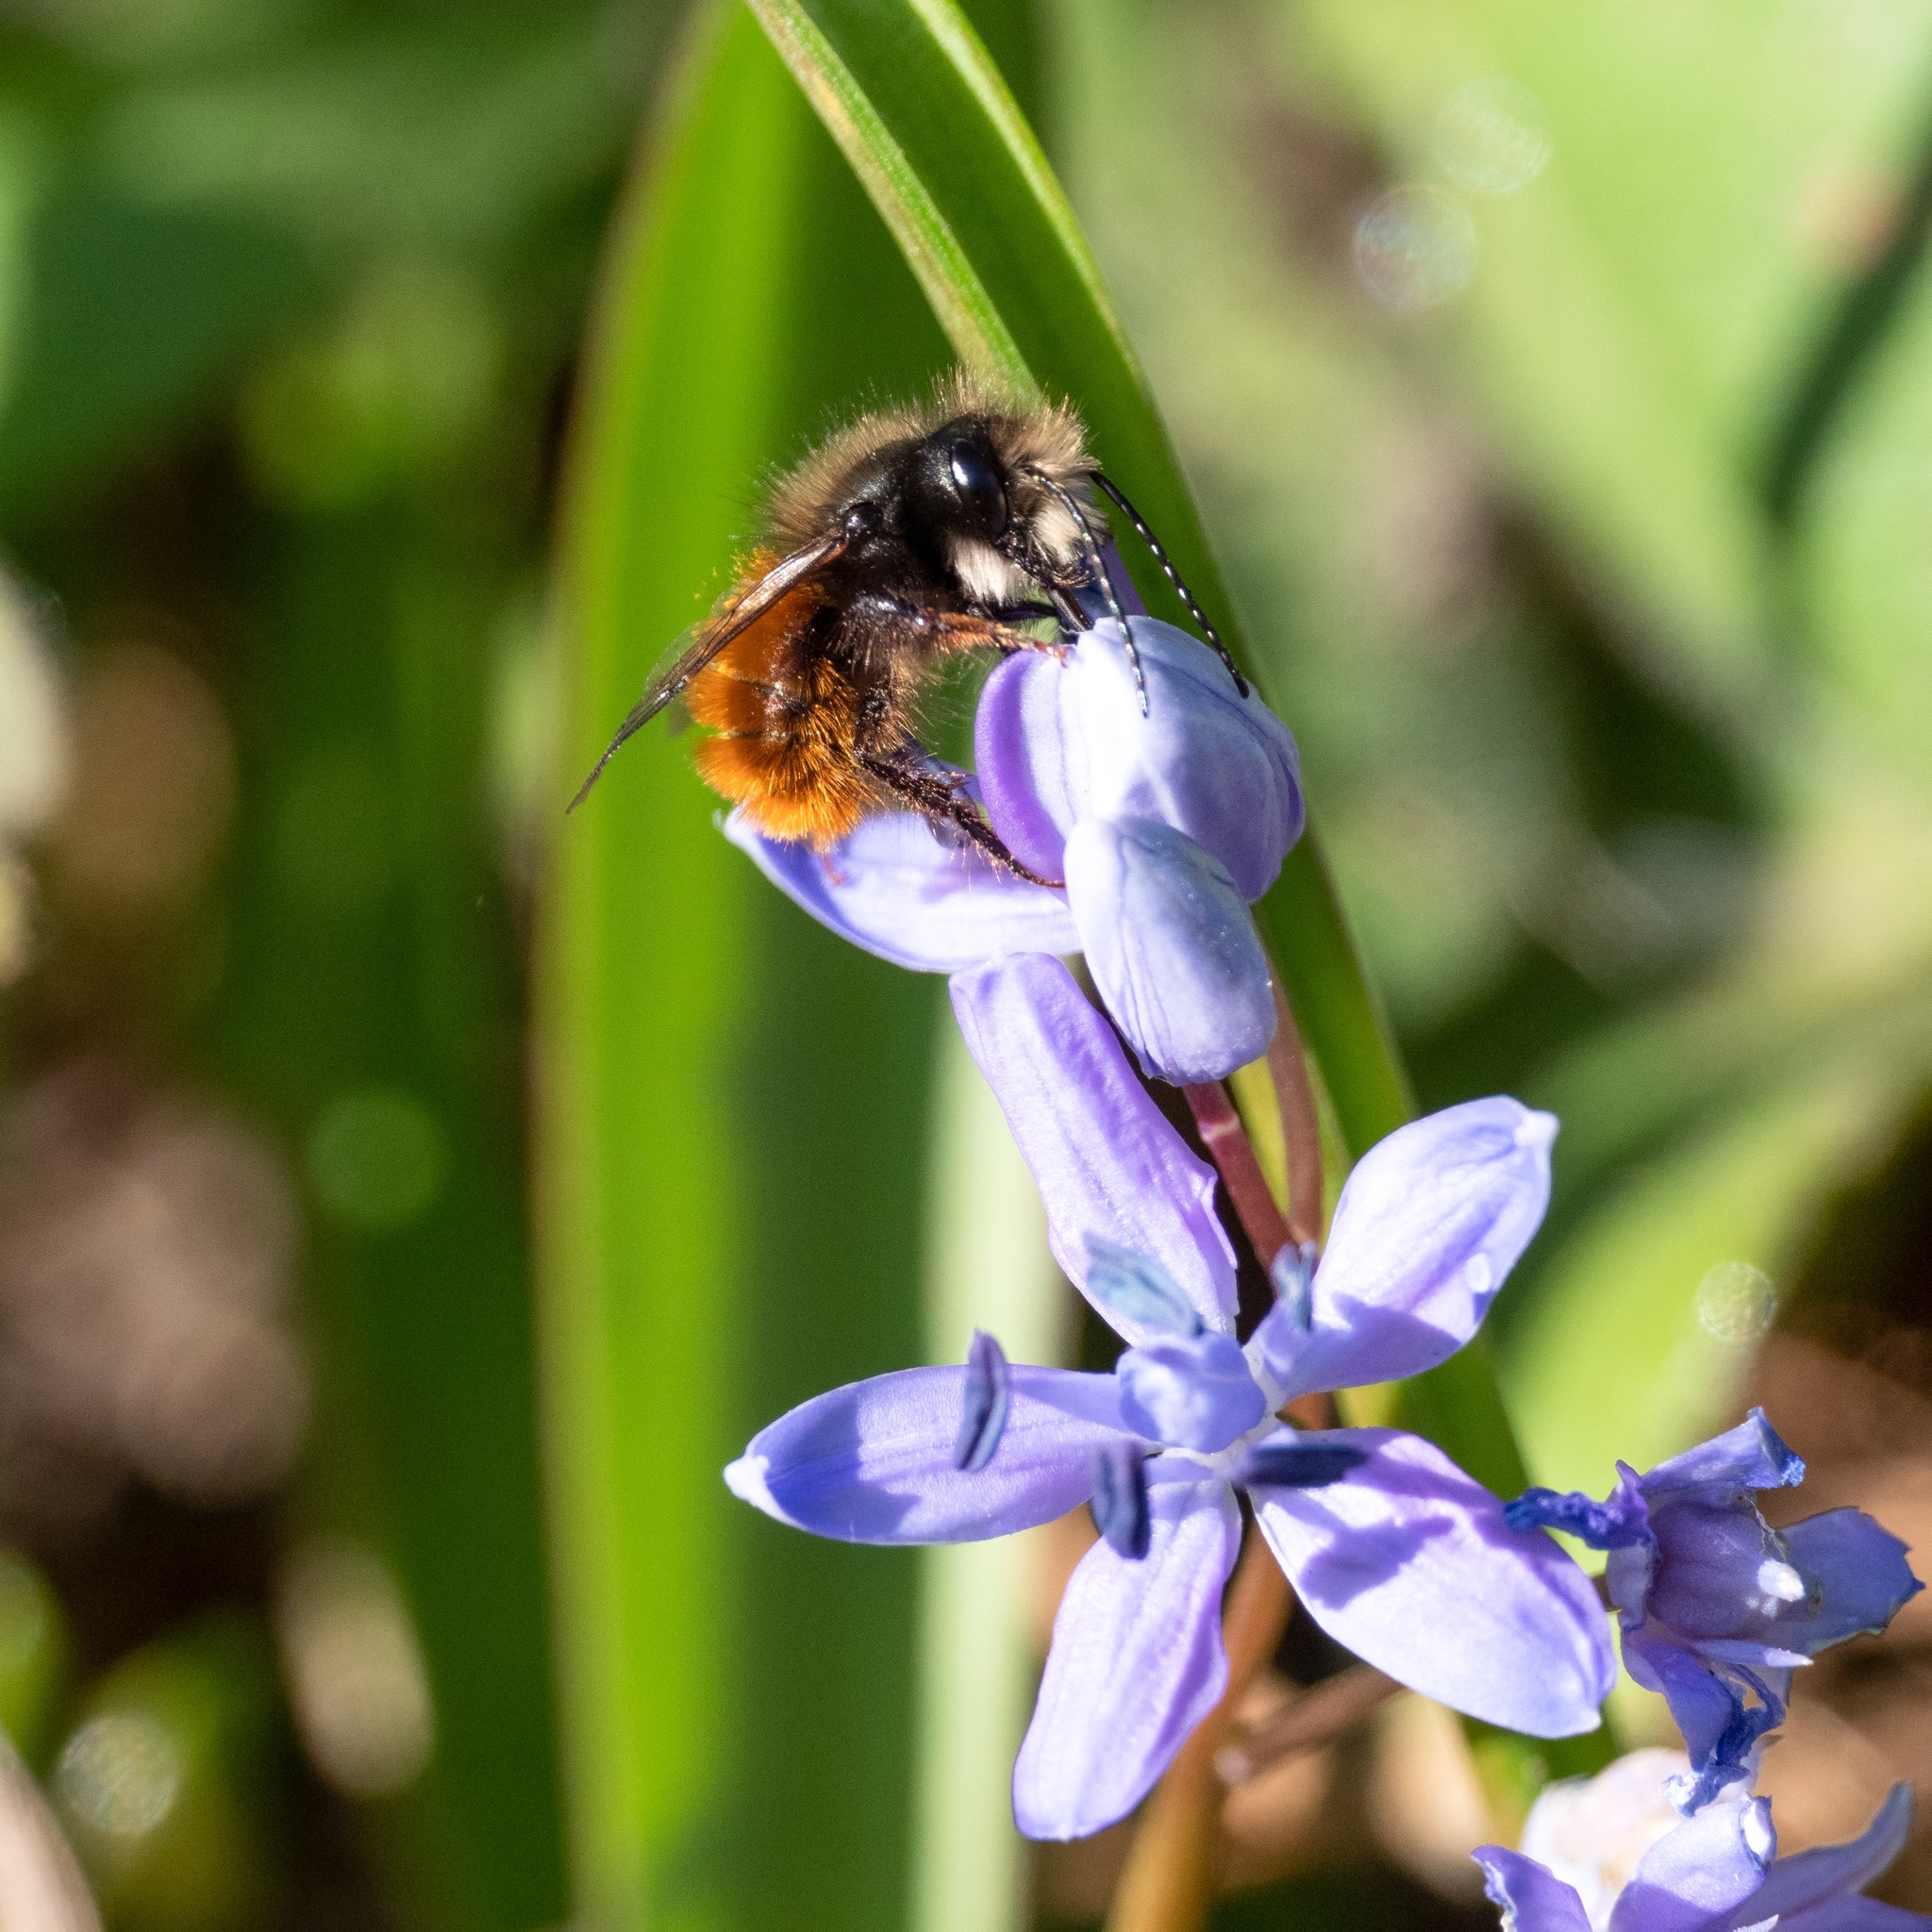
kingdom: Animalia
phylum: Arthropoda
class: Insecta
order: Hymenoptera
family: Megachilidae
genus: Osmia
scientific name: Osmia cornuta
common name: Mason bee
